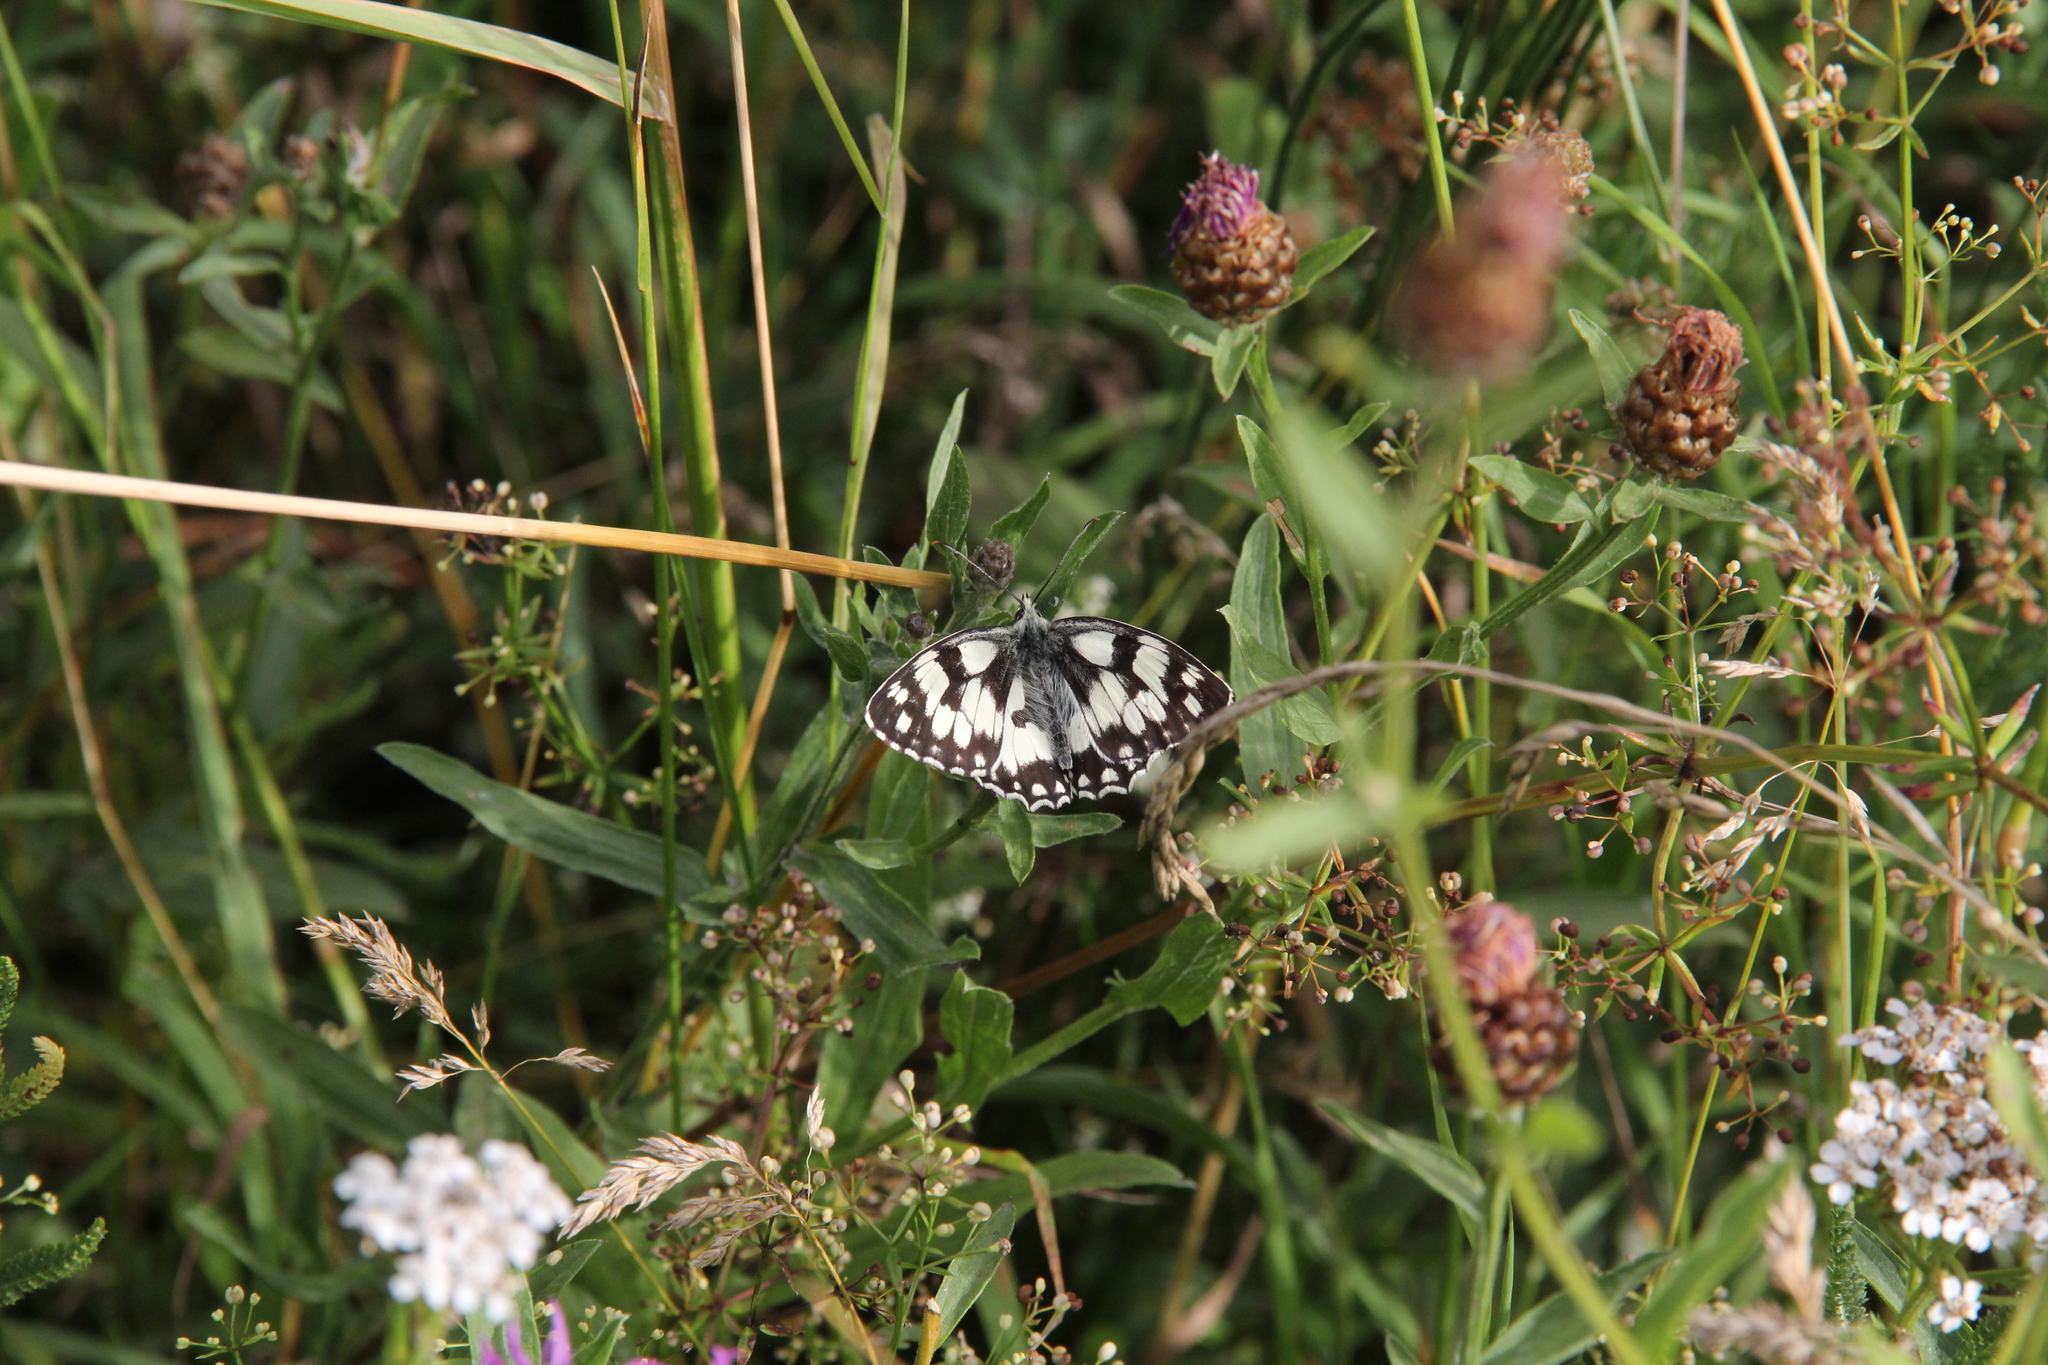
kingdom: Animalia
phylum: Arthropoda
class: Insecta
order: Lepidoptera
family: Nymphalidae
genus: Melanargia
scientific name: Melanargia galathea
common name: Marbled white
